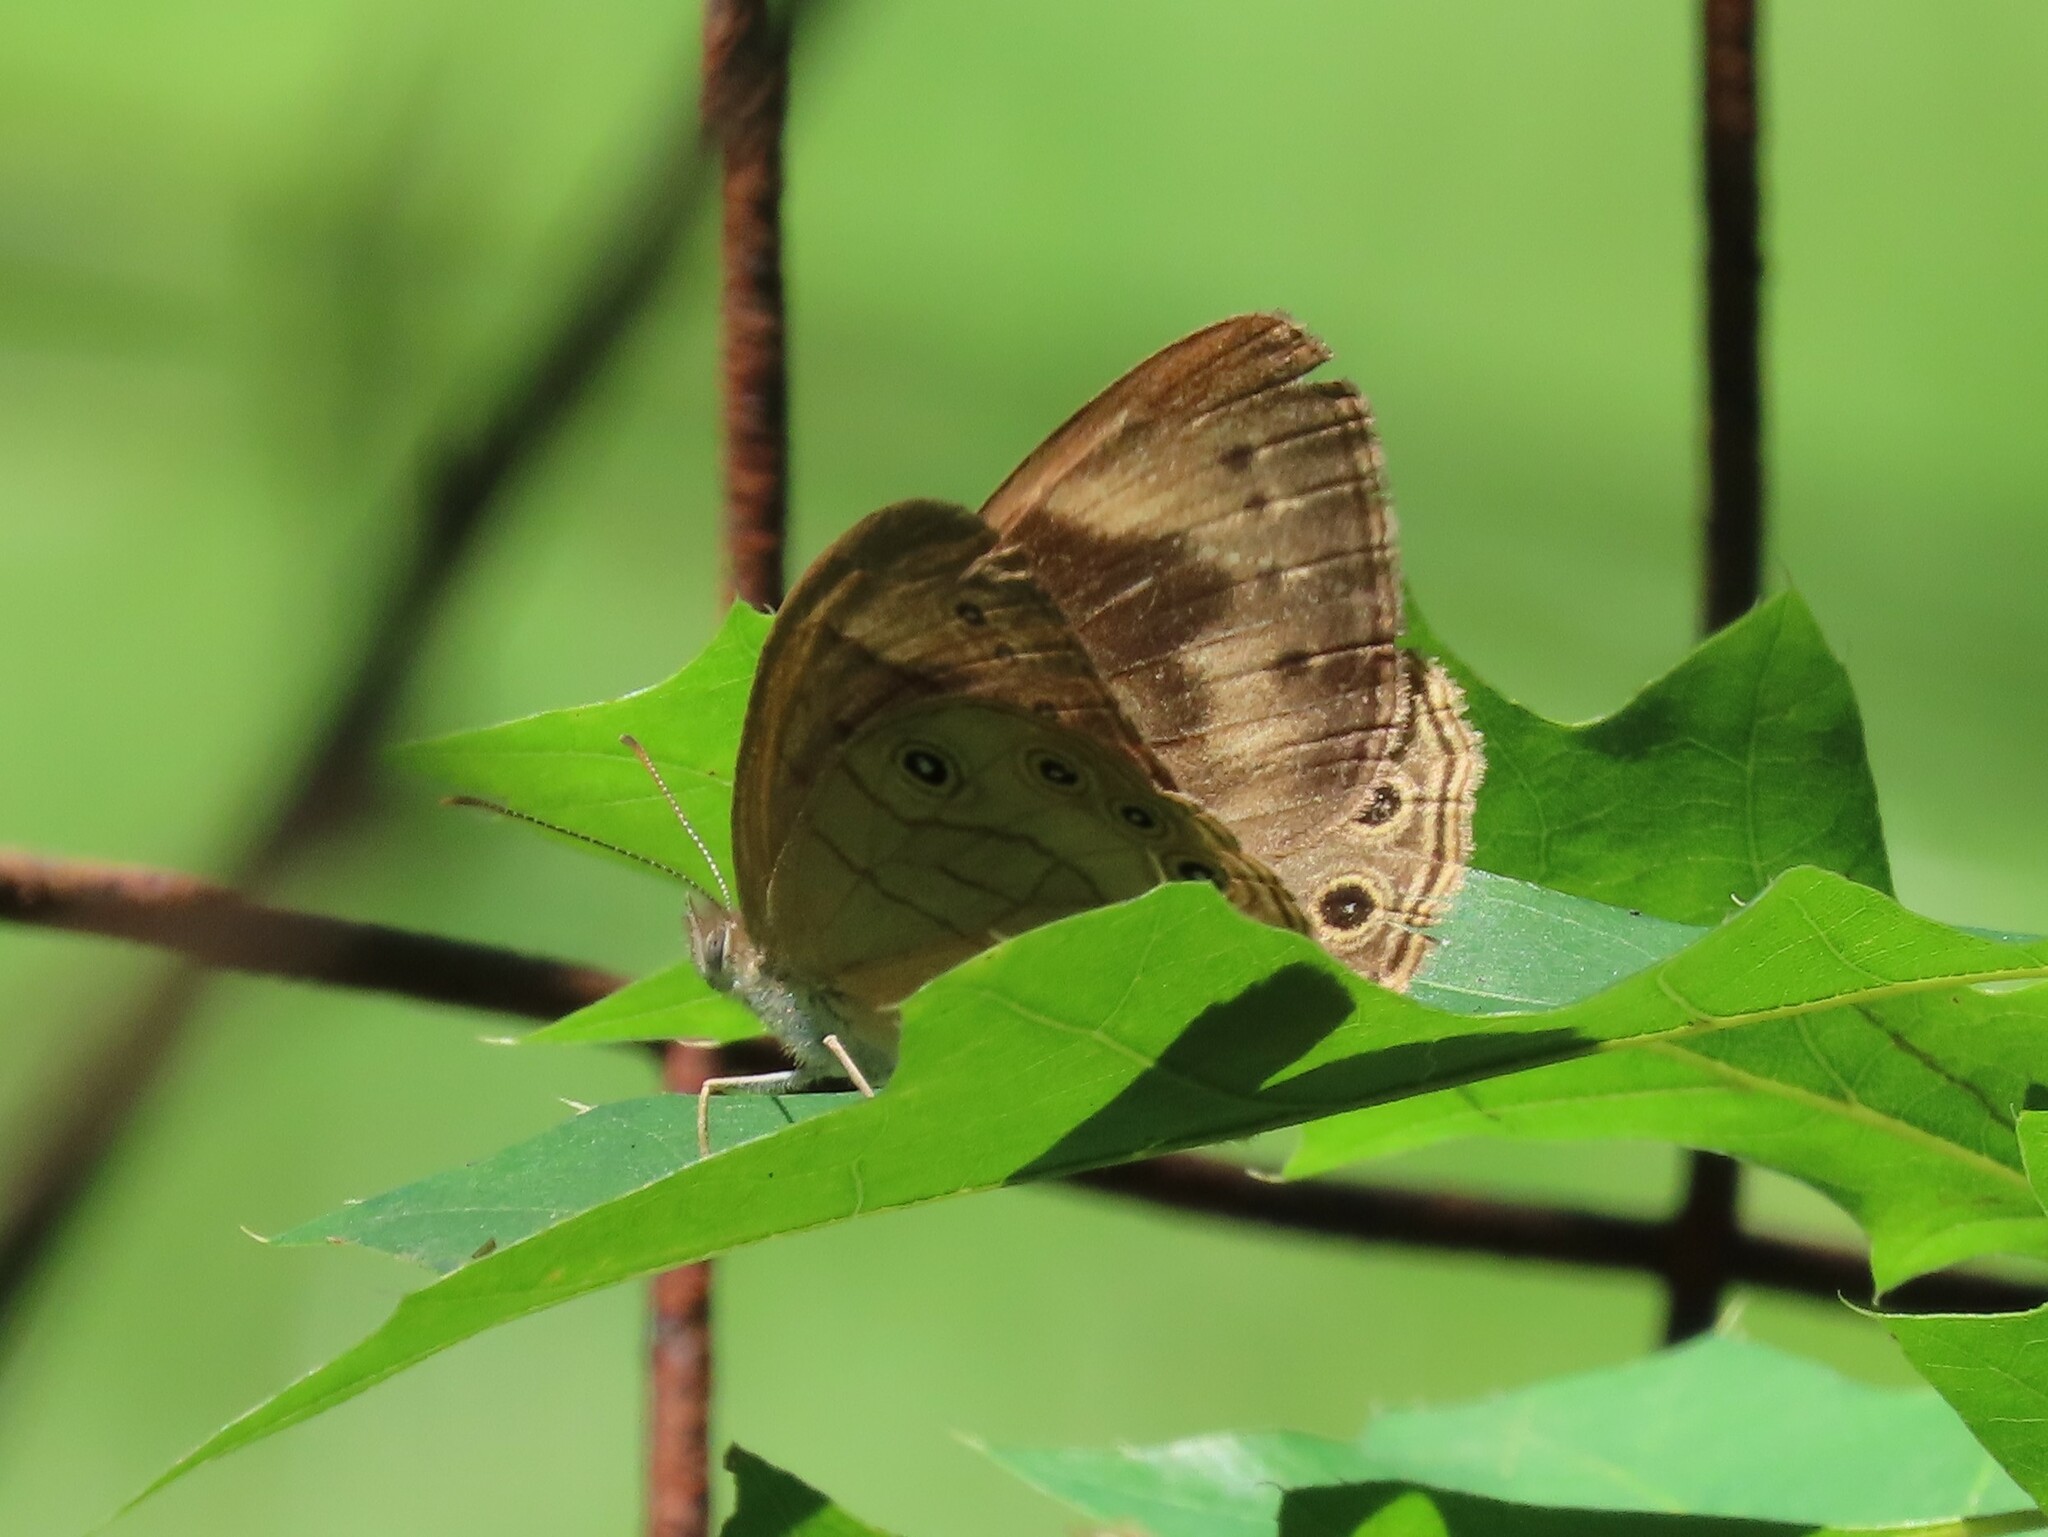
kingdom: Animalia
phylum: Arthropoda
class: Insecta
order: Lepidoptera
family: Nymphalidae
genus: Lethe
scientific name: Lethe eurydice
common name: Eyed brown
